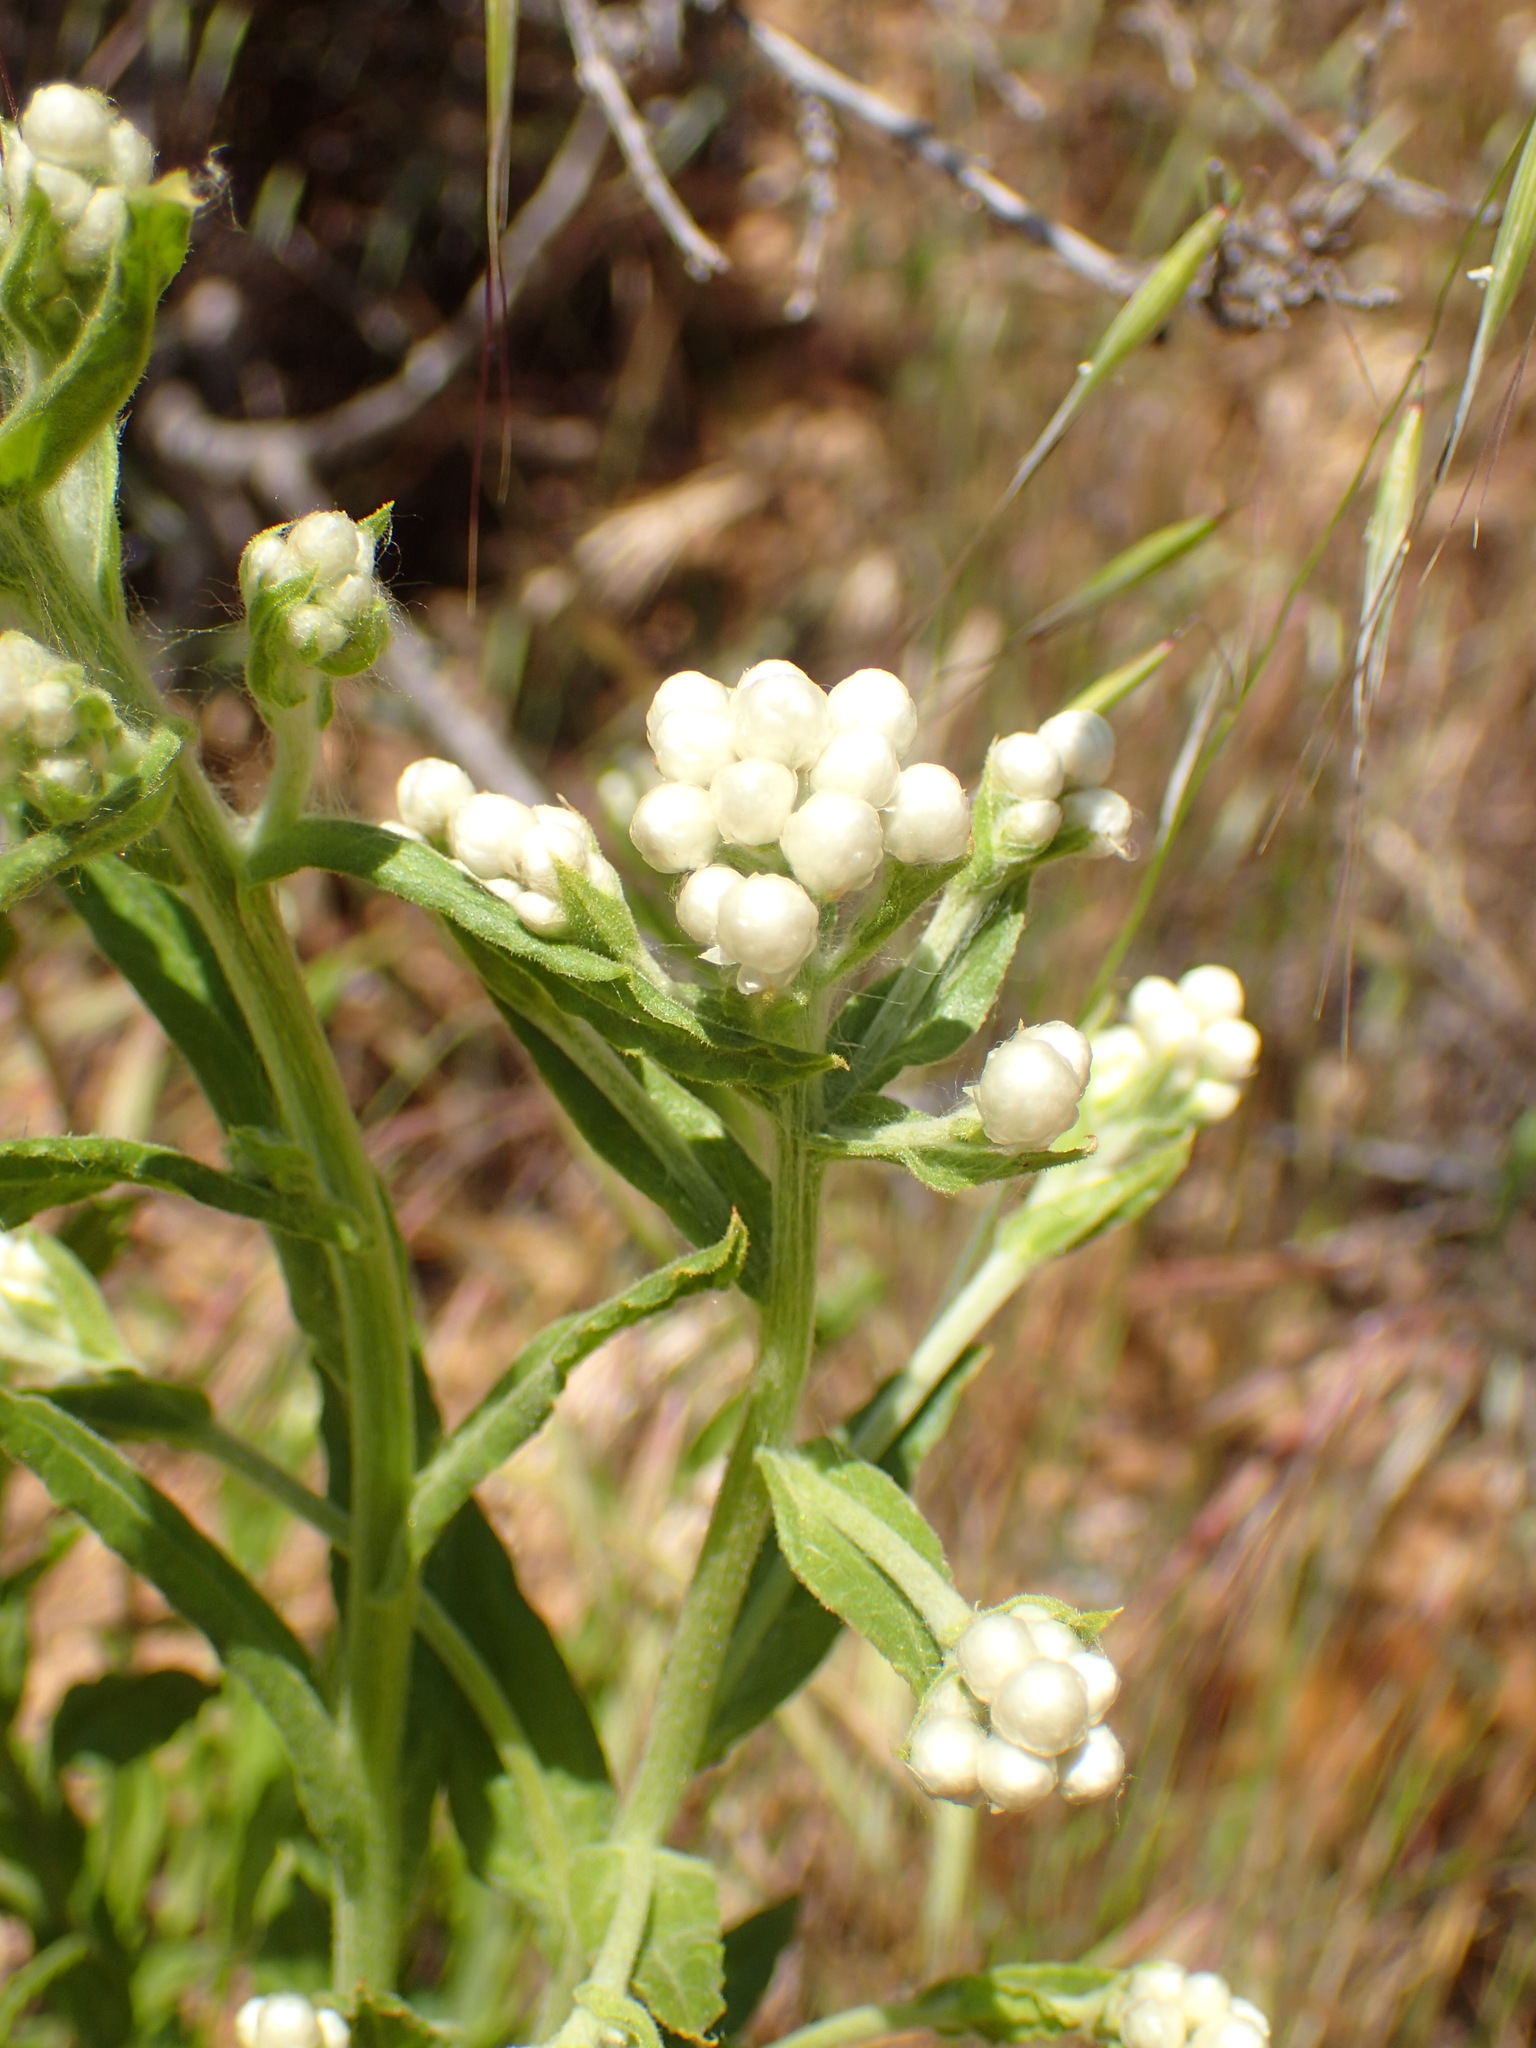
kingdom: Plantae
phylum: Tracheophyta
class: Magnoliopsida
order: Asterales
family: Asteraceae
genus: Pseudognaphalium
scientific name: Pseudognaphalium californicum
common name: California rabbit-tobacco
